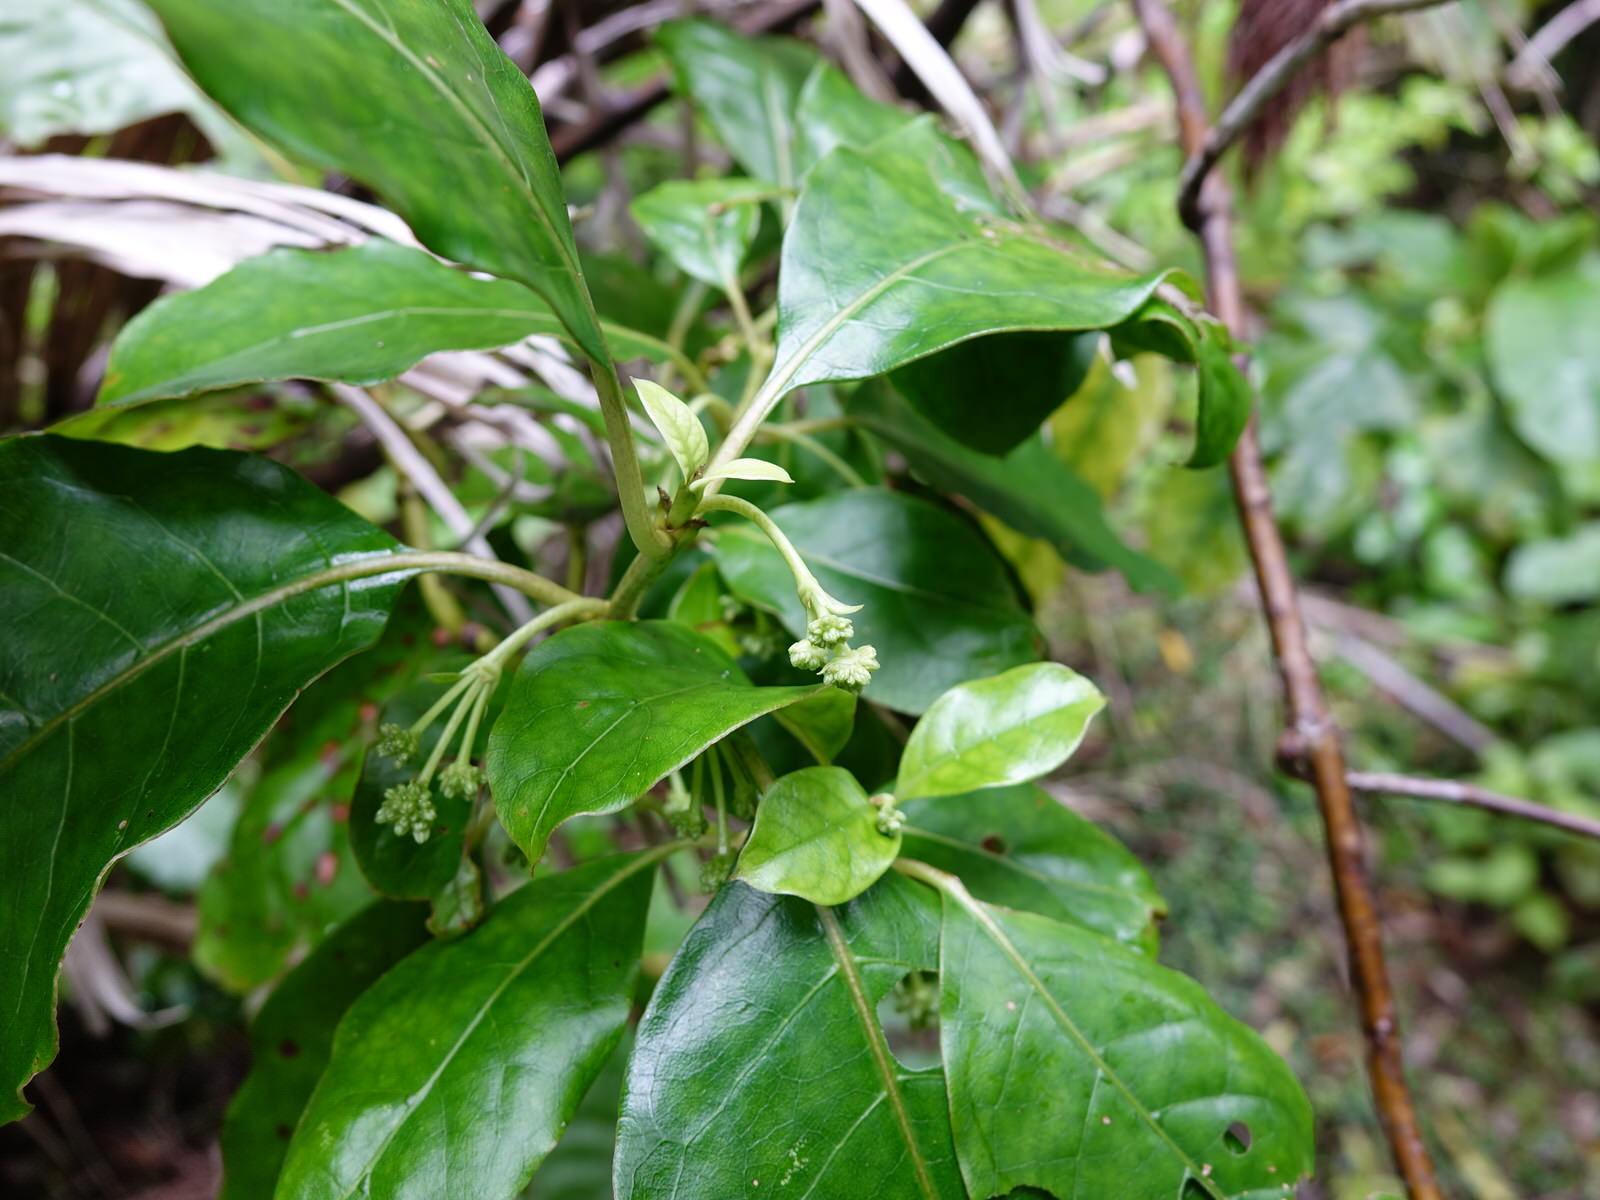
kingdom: Plantae
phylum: Tracheophyta
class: Magnoliopsida
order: Gentianales
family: Rubiaceae
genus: Coprosma
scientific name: Coprosma autumnalis
